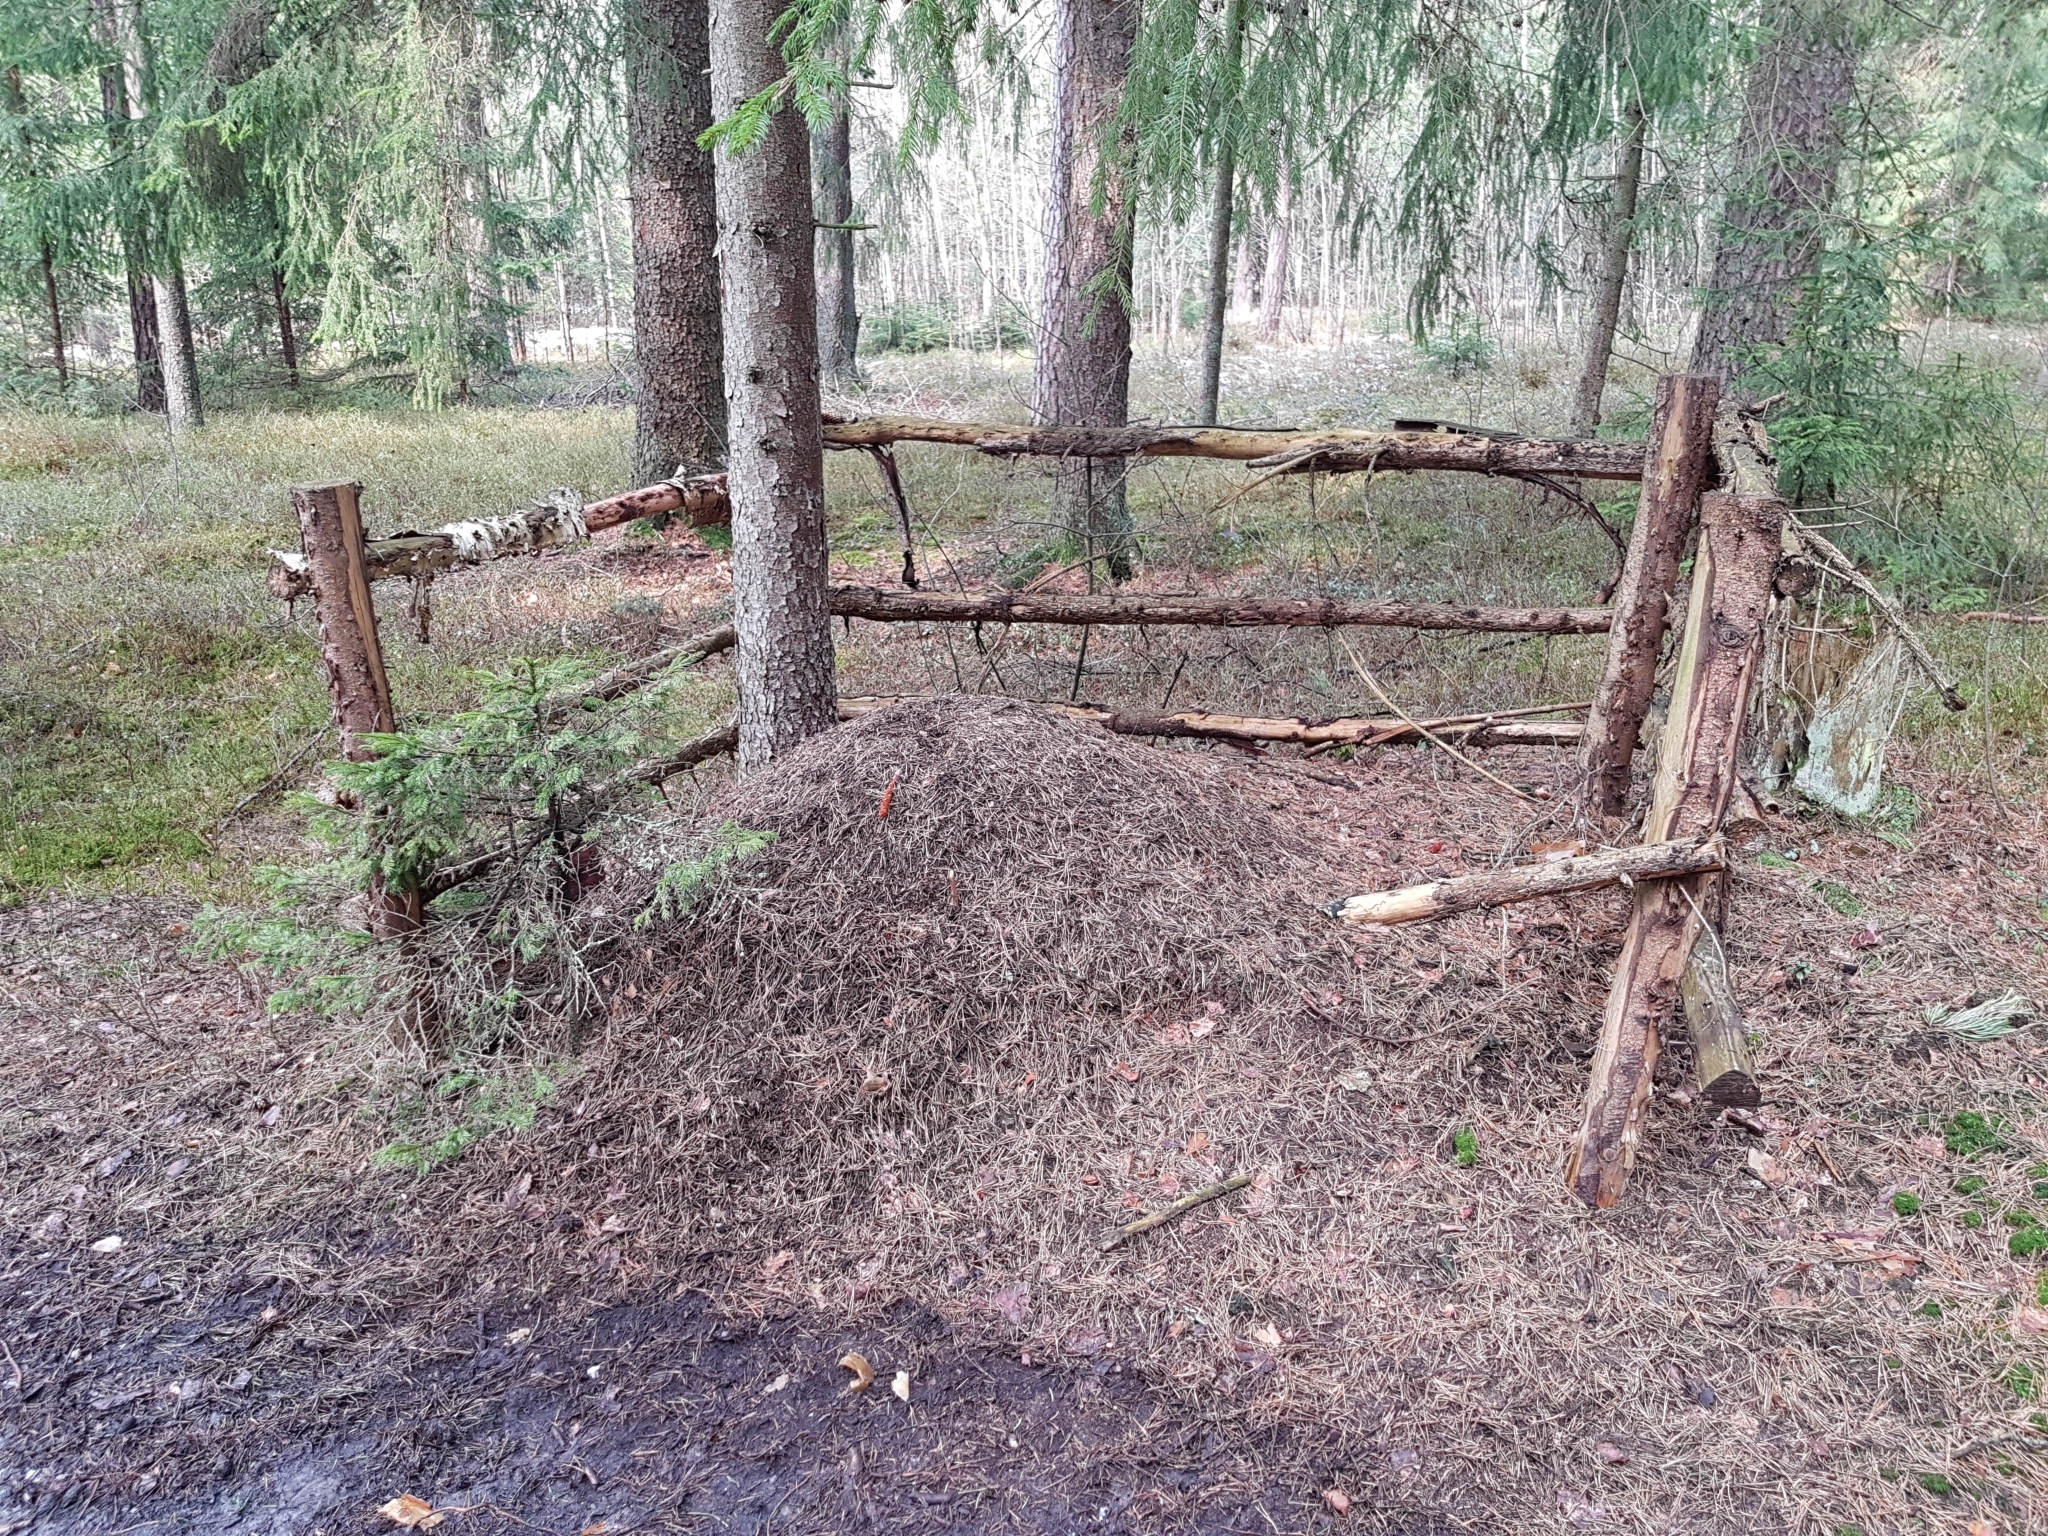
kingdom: Animalia
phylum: Arthropoda
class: Insecta
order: Hymenoptera
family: Formicidae
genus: Formica
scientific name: Formica
